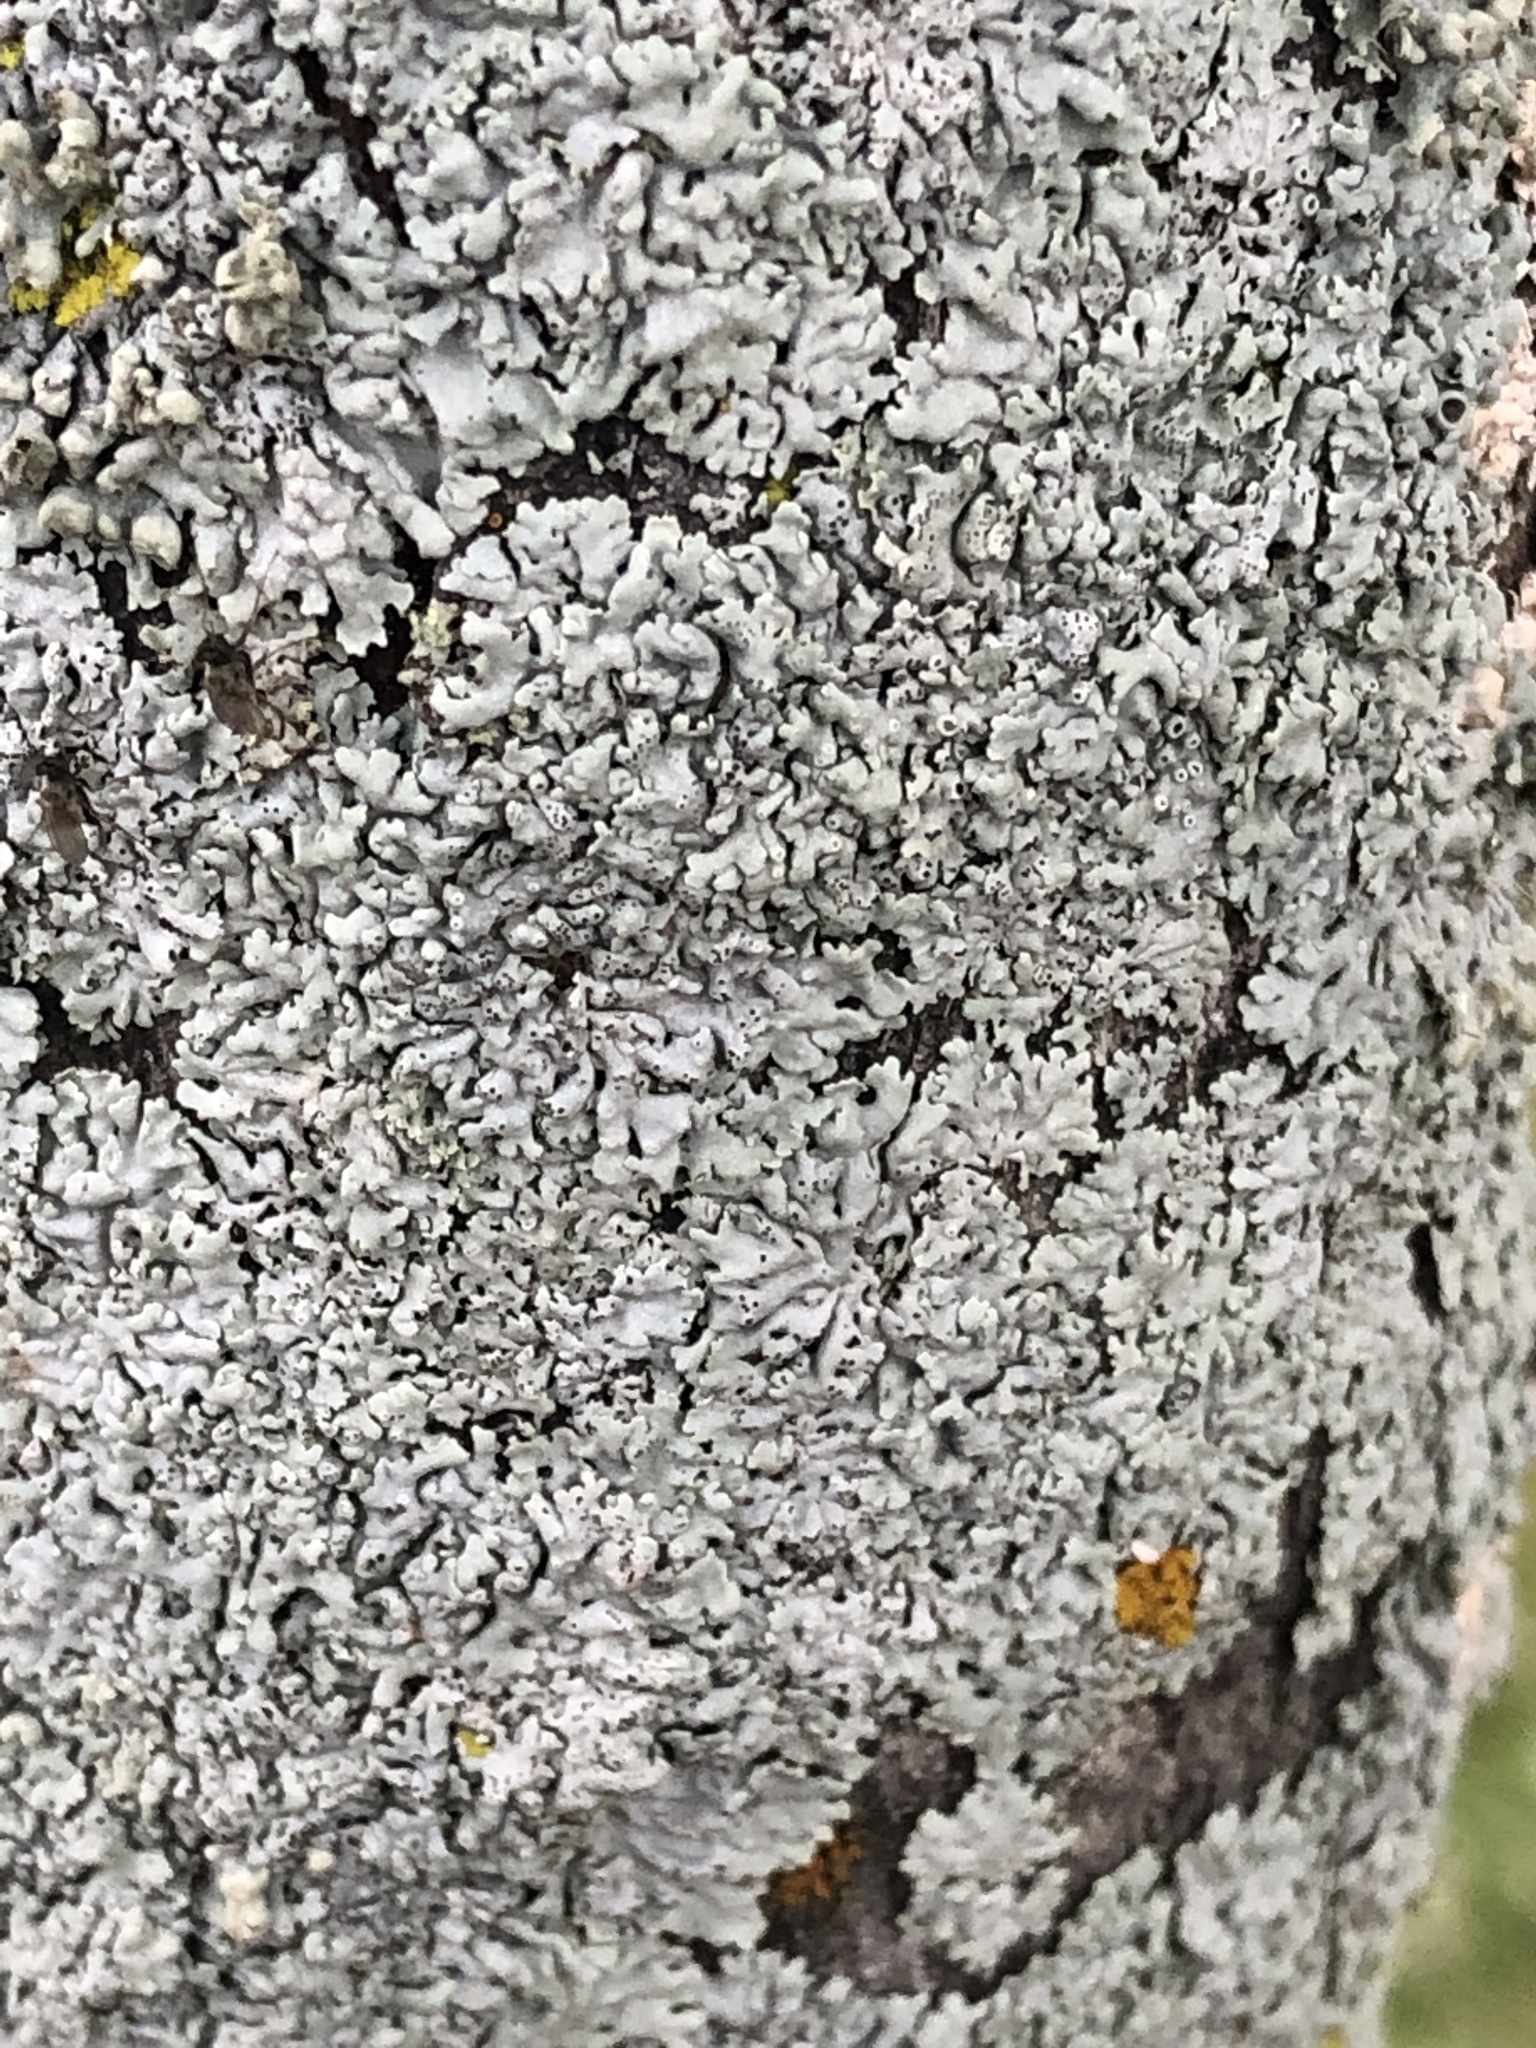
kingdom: Fungi
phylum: Ascomycota
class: Lecanoromycetes
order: Caliciales
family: Physciaceae
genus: Physcia
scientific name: Physcia stellaris
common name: Star rosette lichen
